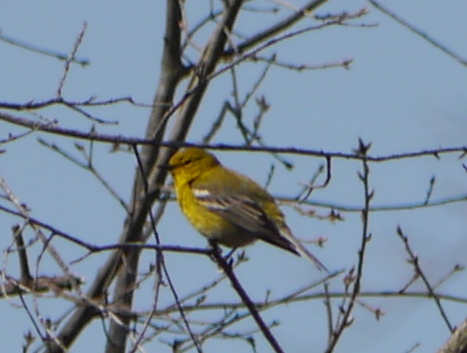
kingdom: Animalia
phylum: Chordata
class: Aves
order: Passeriformes
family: Parulidae
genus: Setophaga
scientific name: Setophaga pinus
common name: Pine warbler
